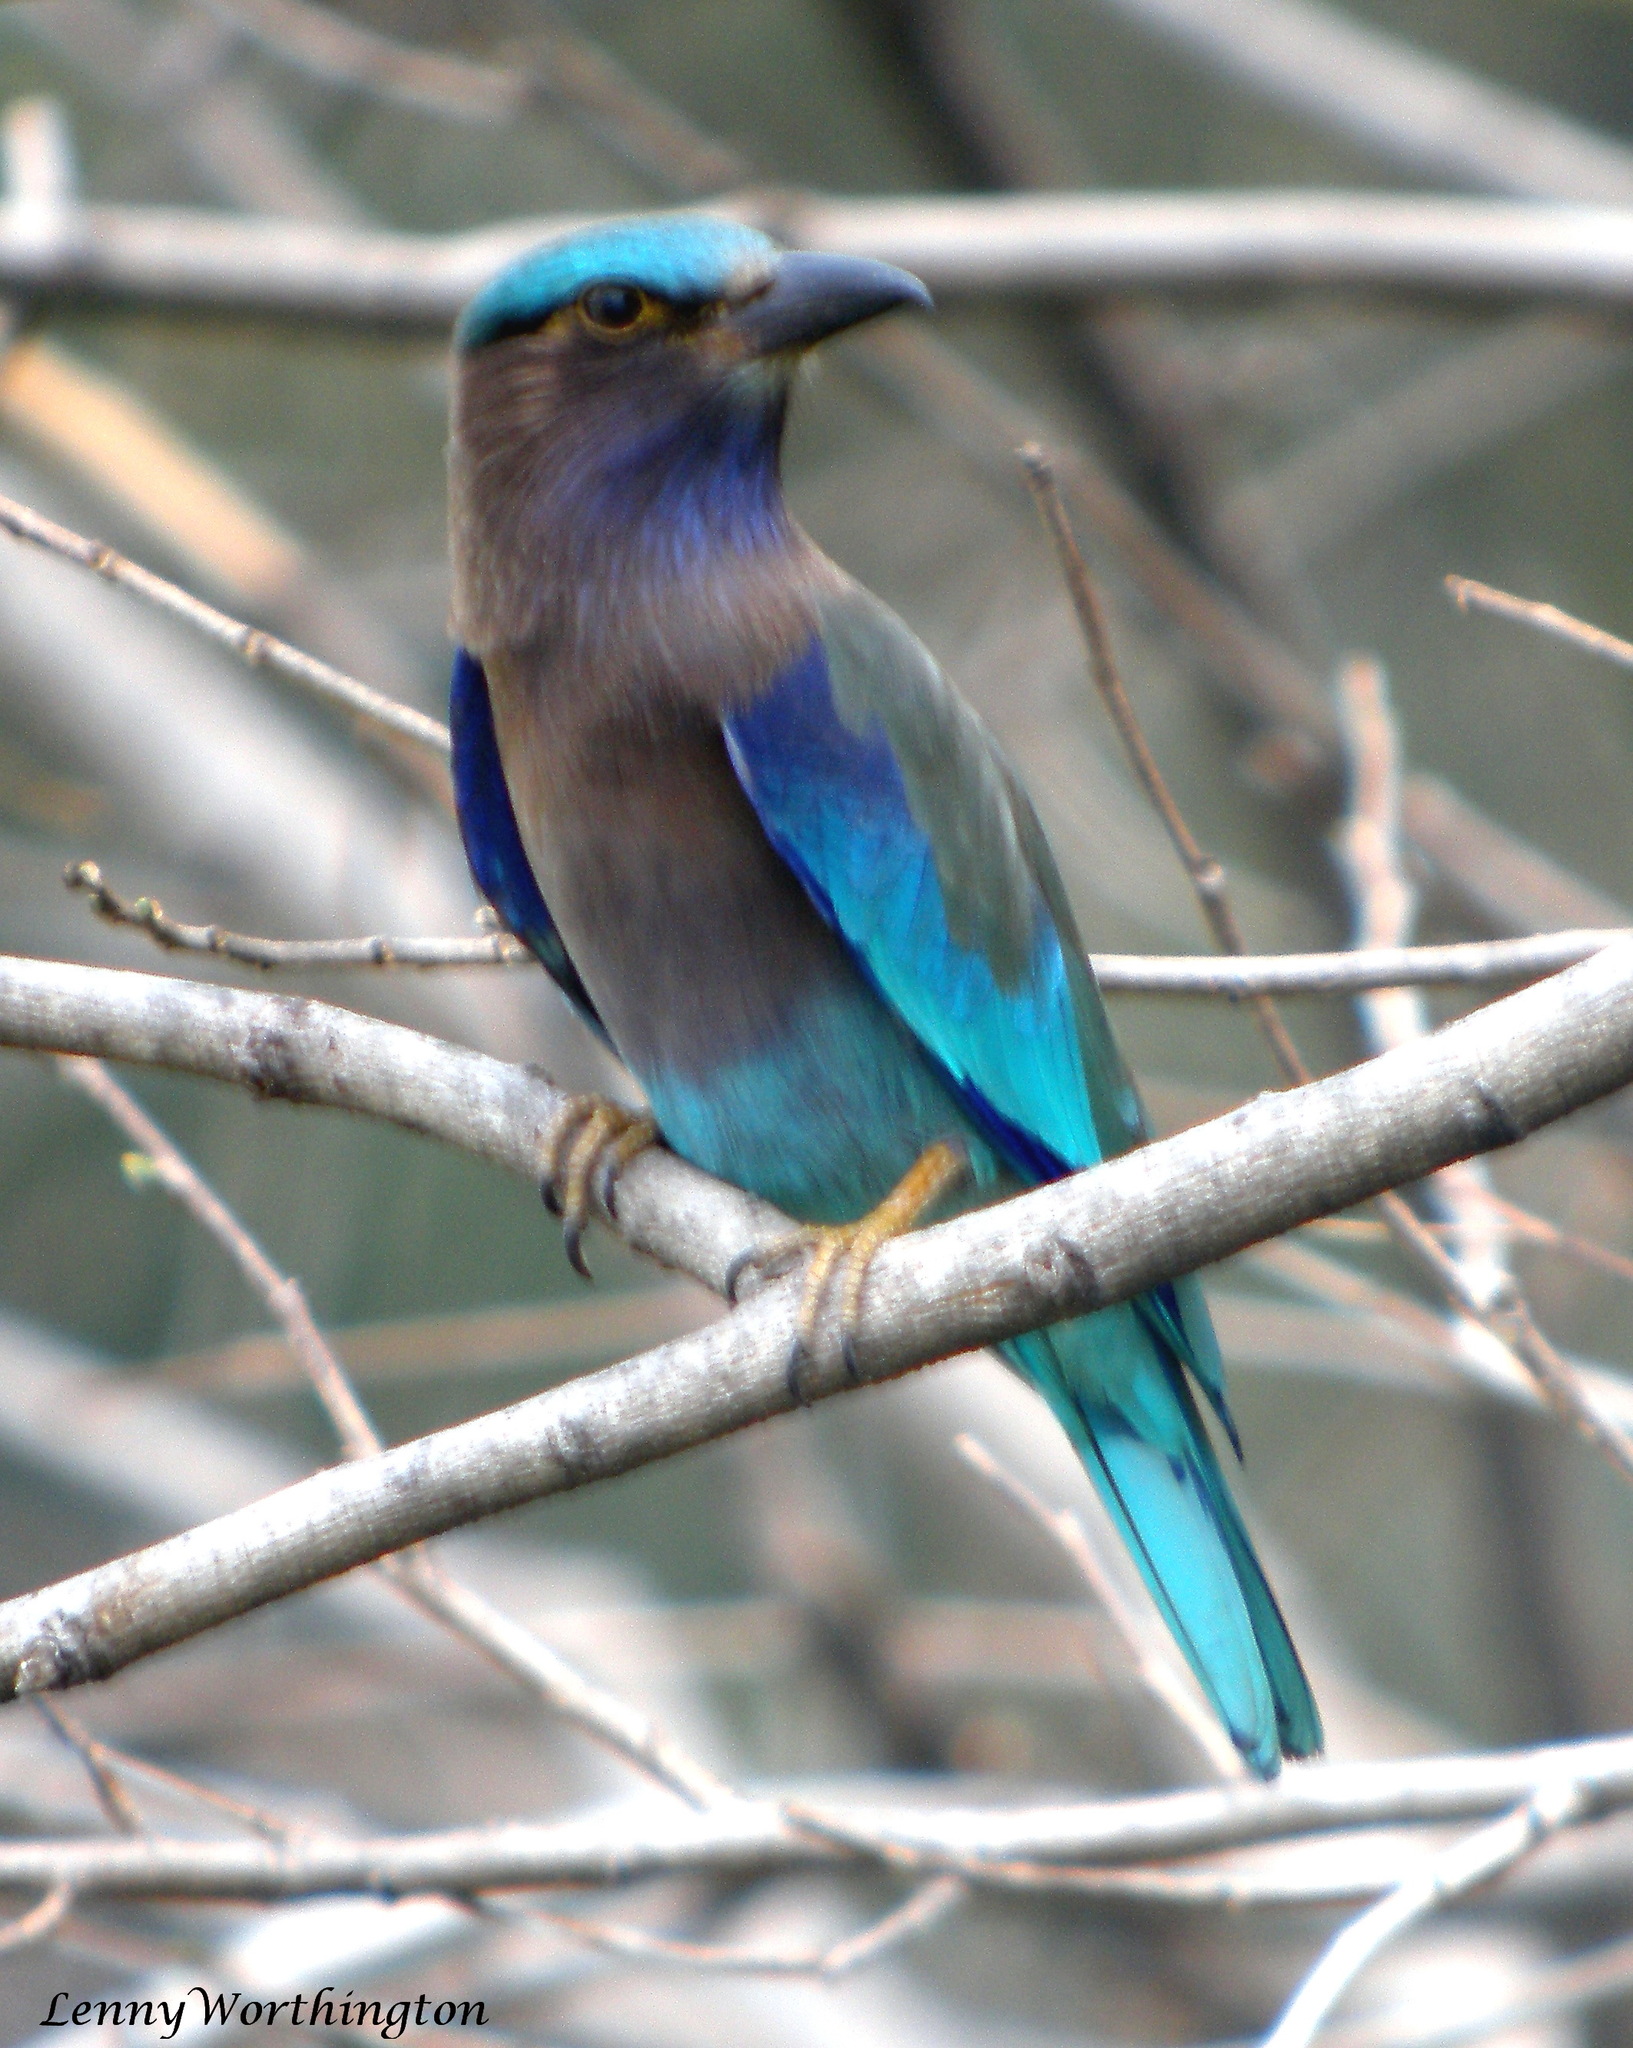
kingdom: Animalia
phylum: Chordata
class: Aves
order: Coraciiformes
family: Coraciidae
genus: Coracias
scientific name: Coracias affinis
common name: Indochinese roller
